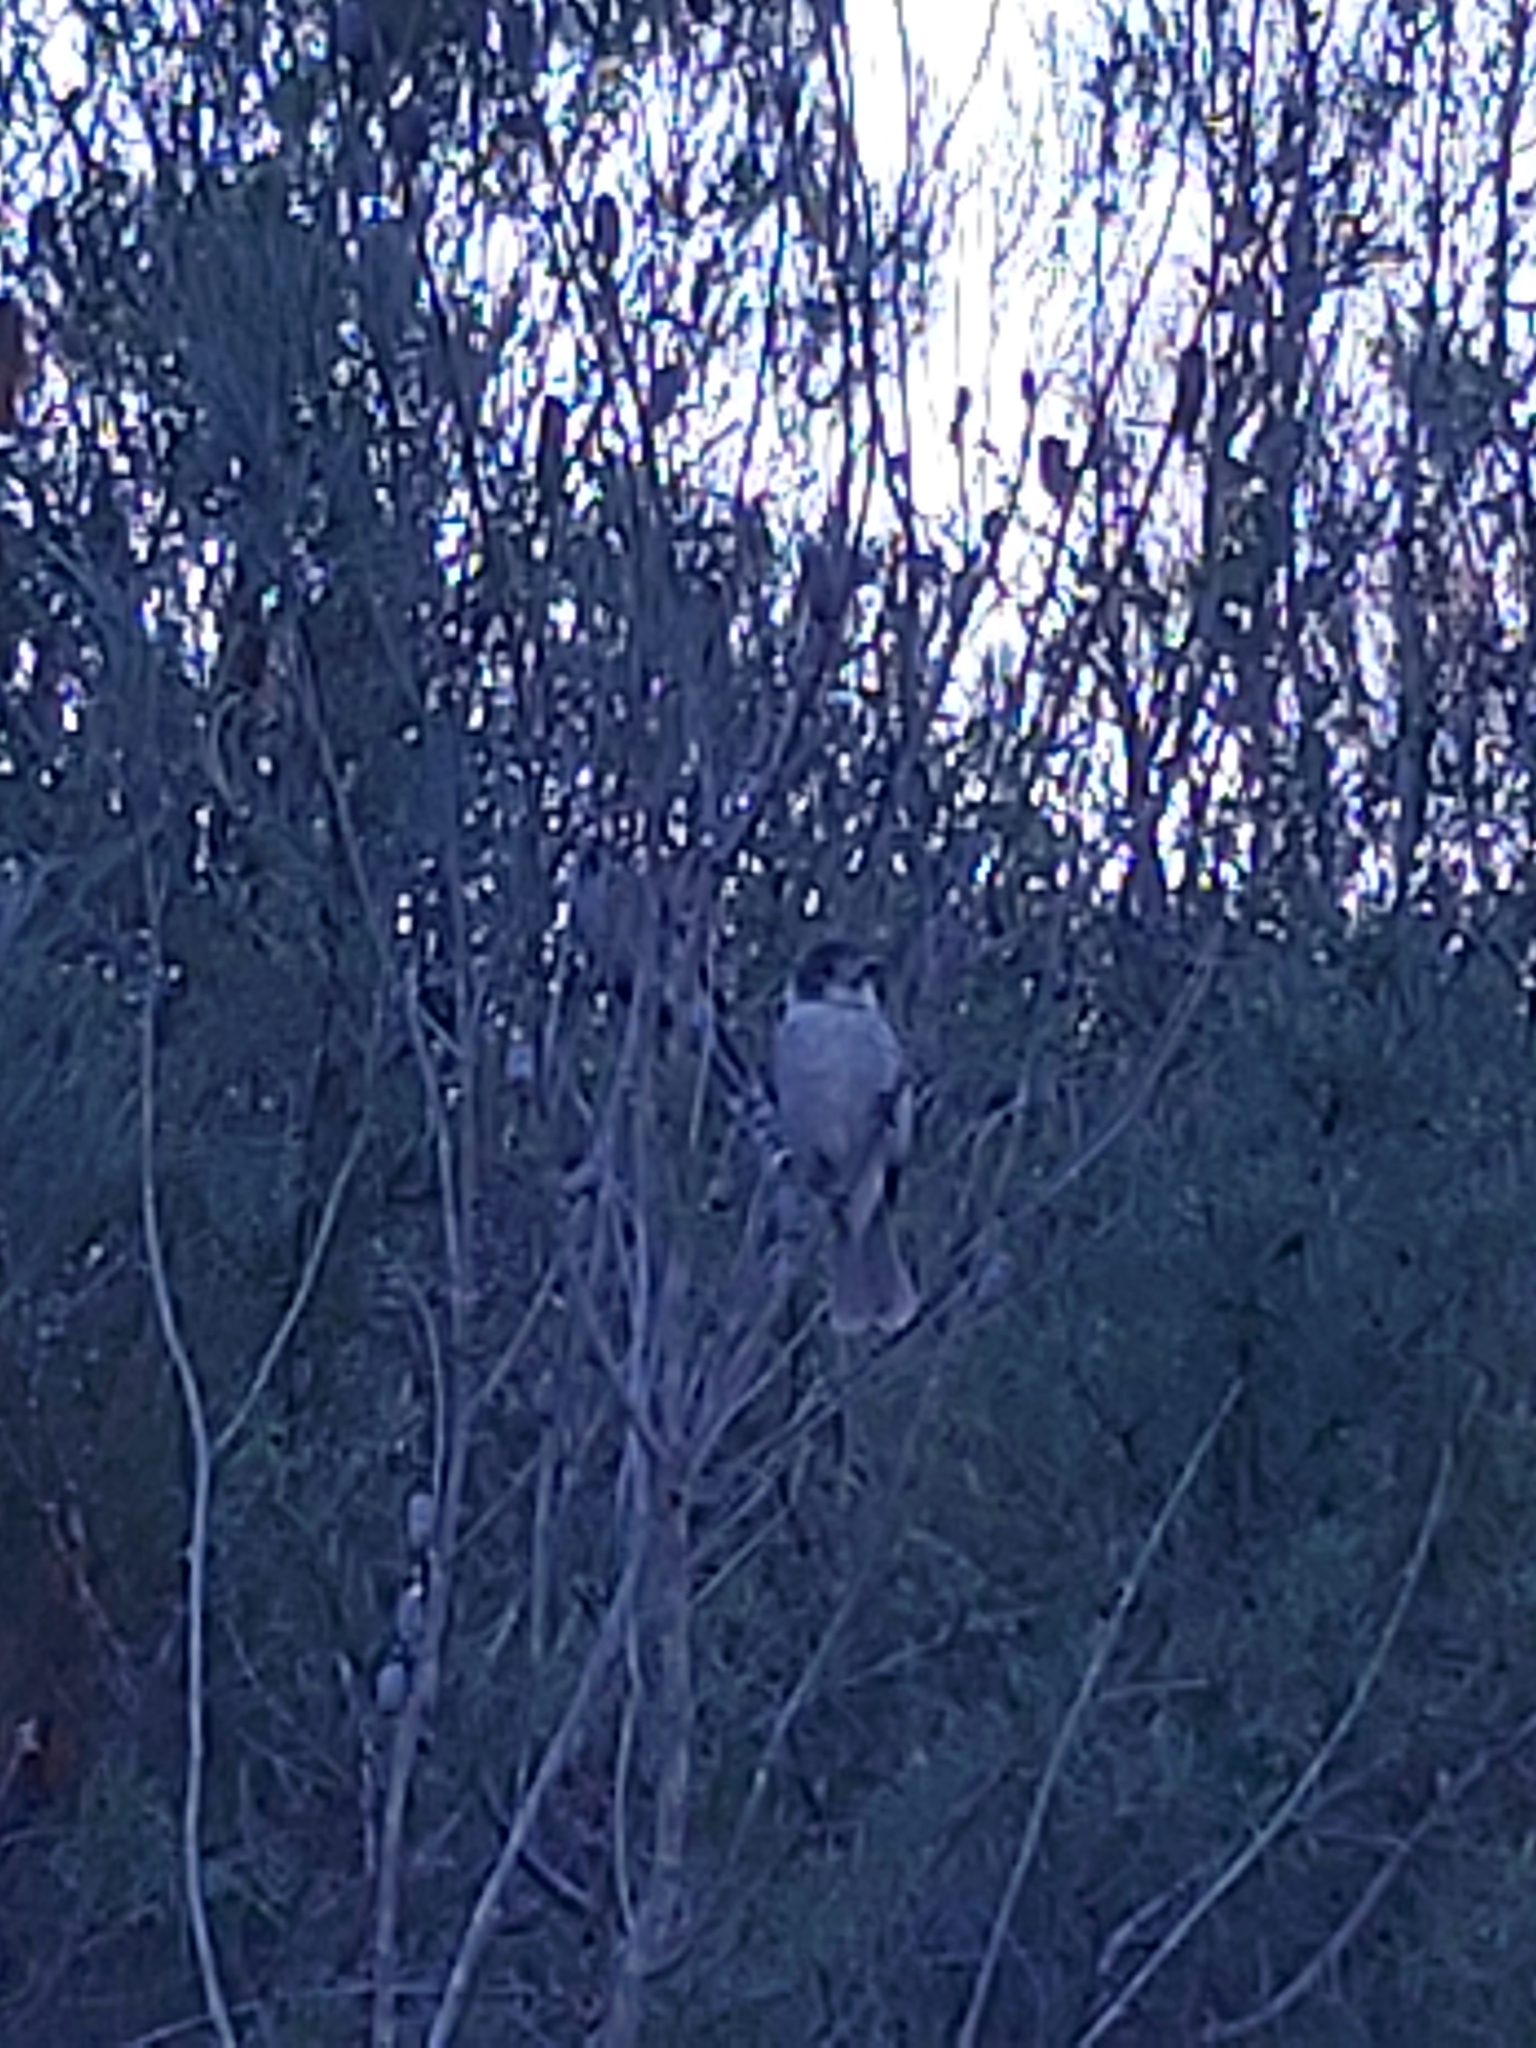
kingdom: Animalia
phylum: Chordata
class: Aves
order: Passeriformes
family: Cracticidae
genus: Cracticus
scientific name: Cracticus torquatus
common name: Grey butcherbird
